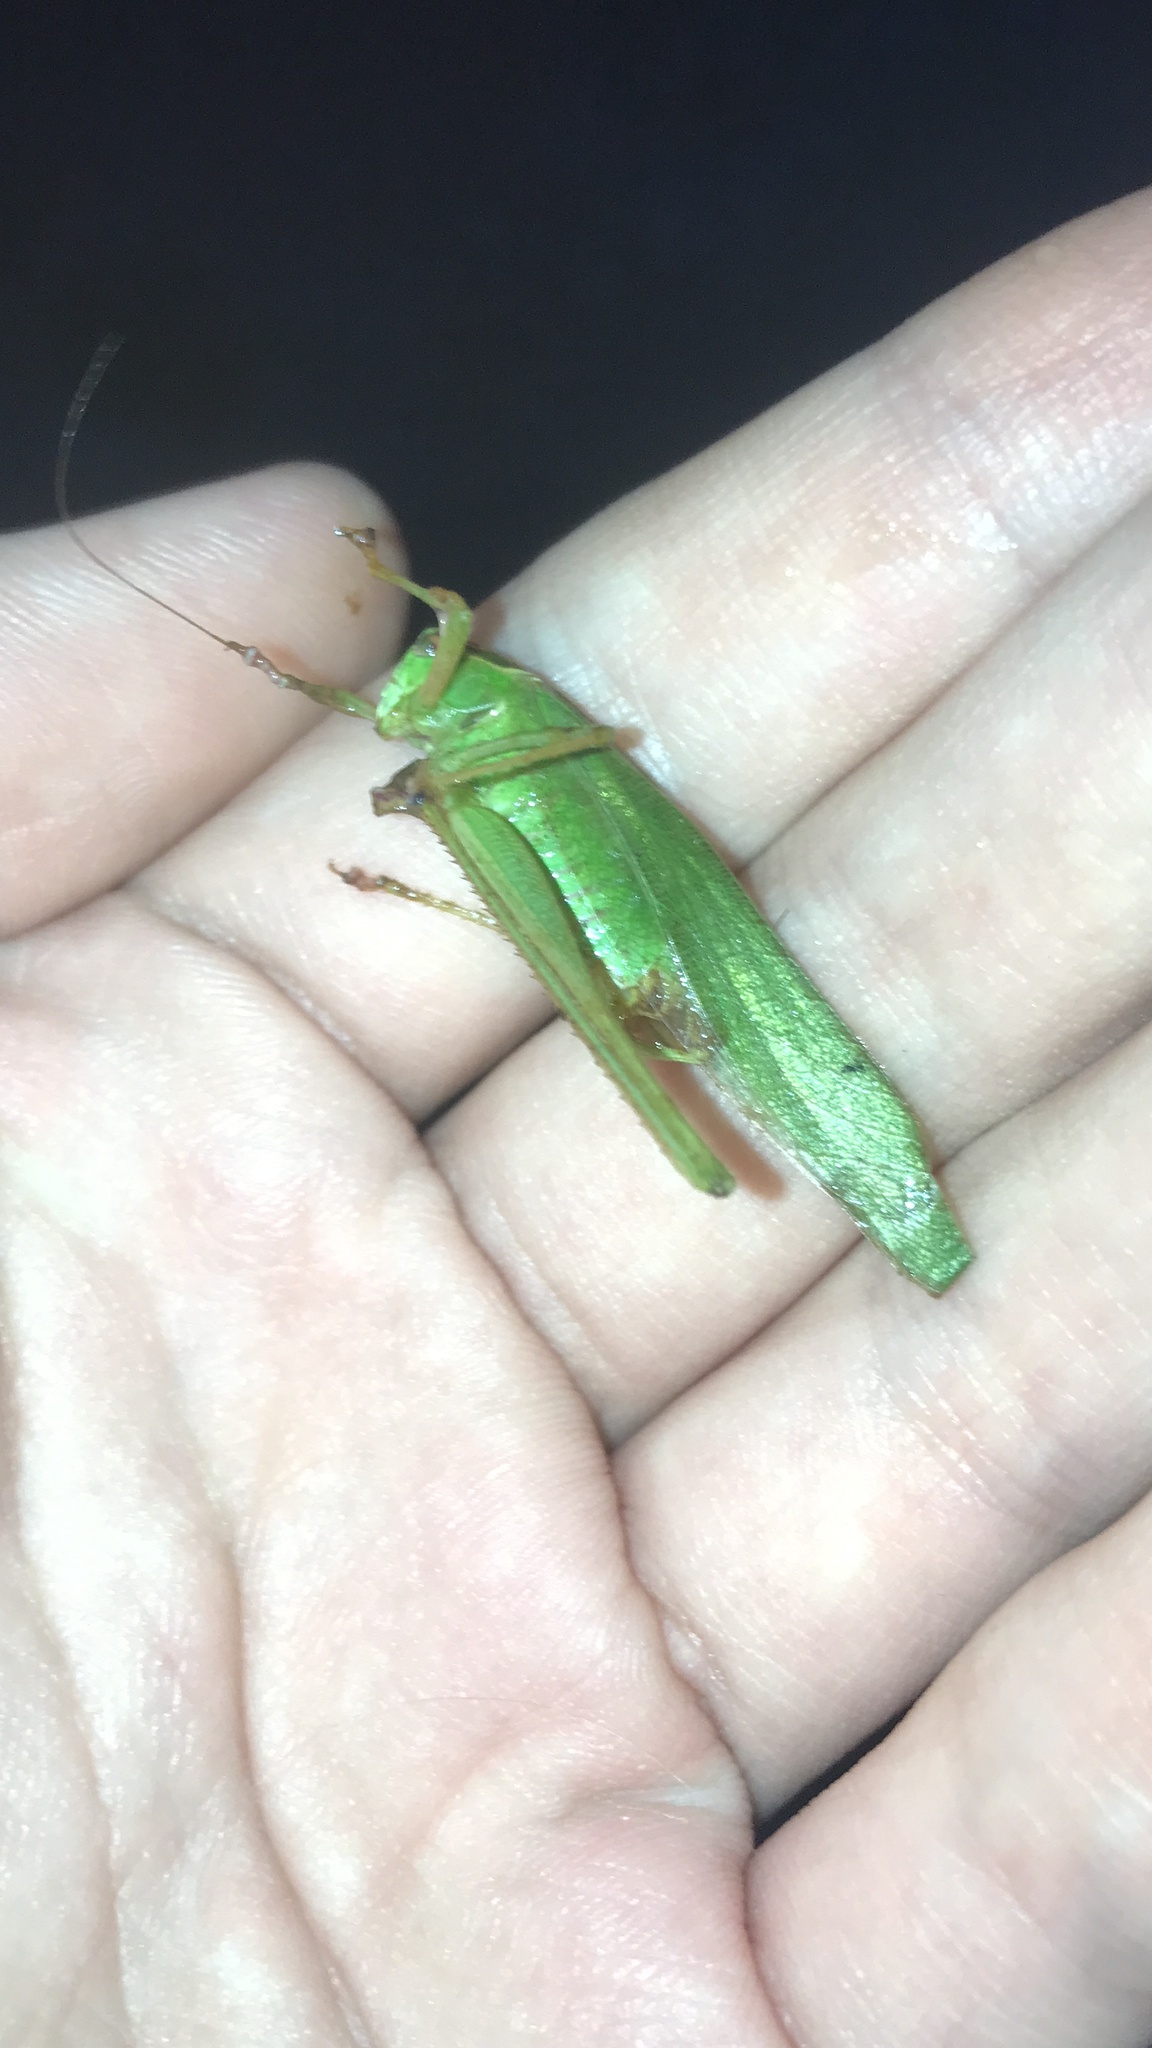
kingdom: Animalia
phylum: Arthropoda
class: Insecta
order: Orthoptera
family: Tettigoniidae
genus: Scudderia
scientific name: Scudderia furcata
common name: Fork-tailed bush katydid
